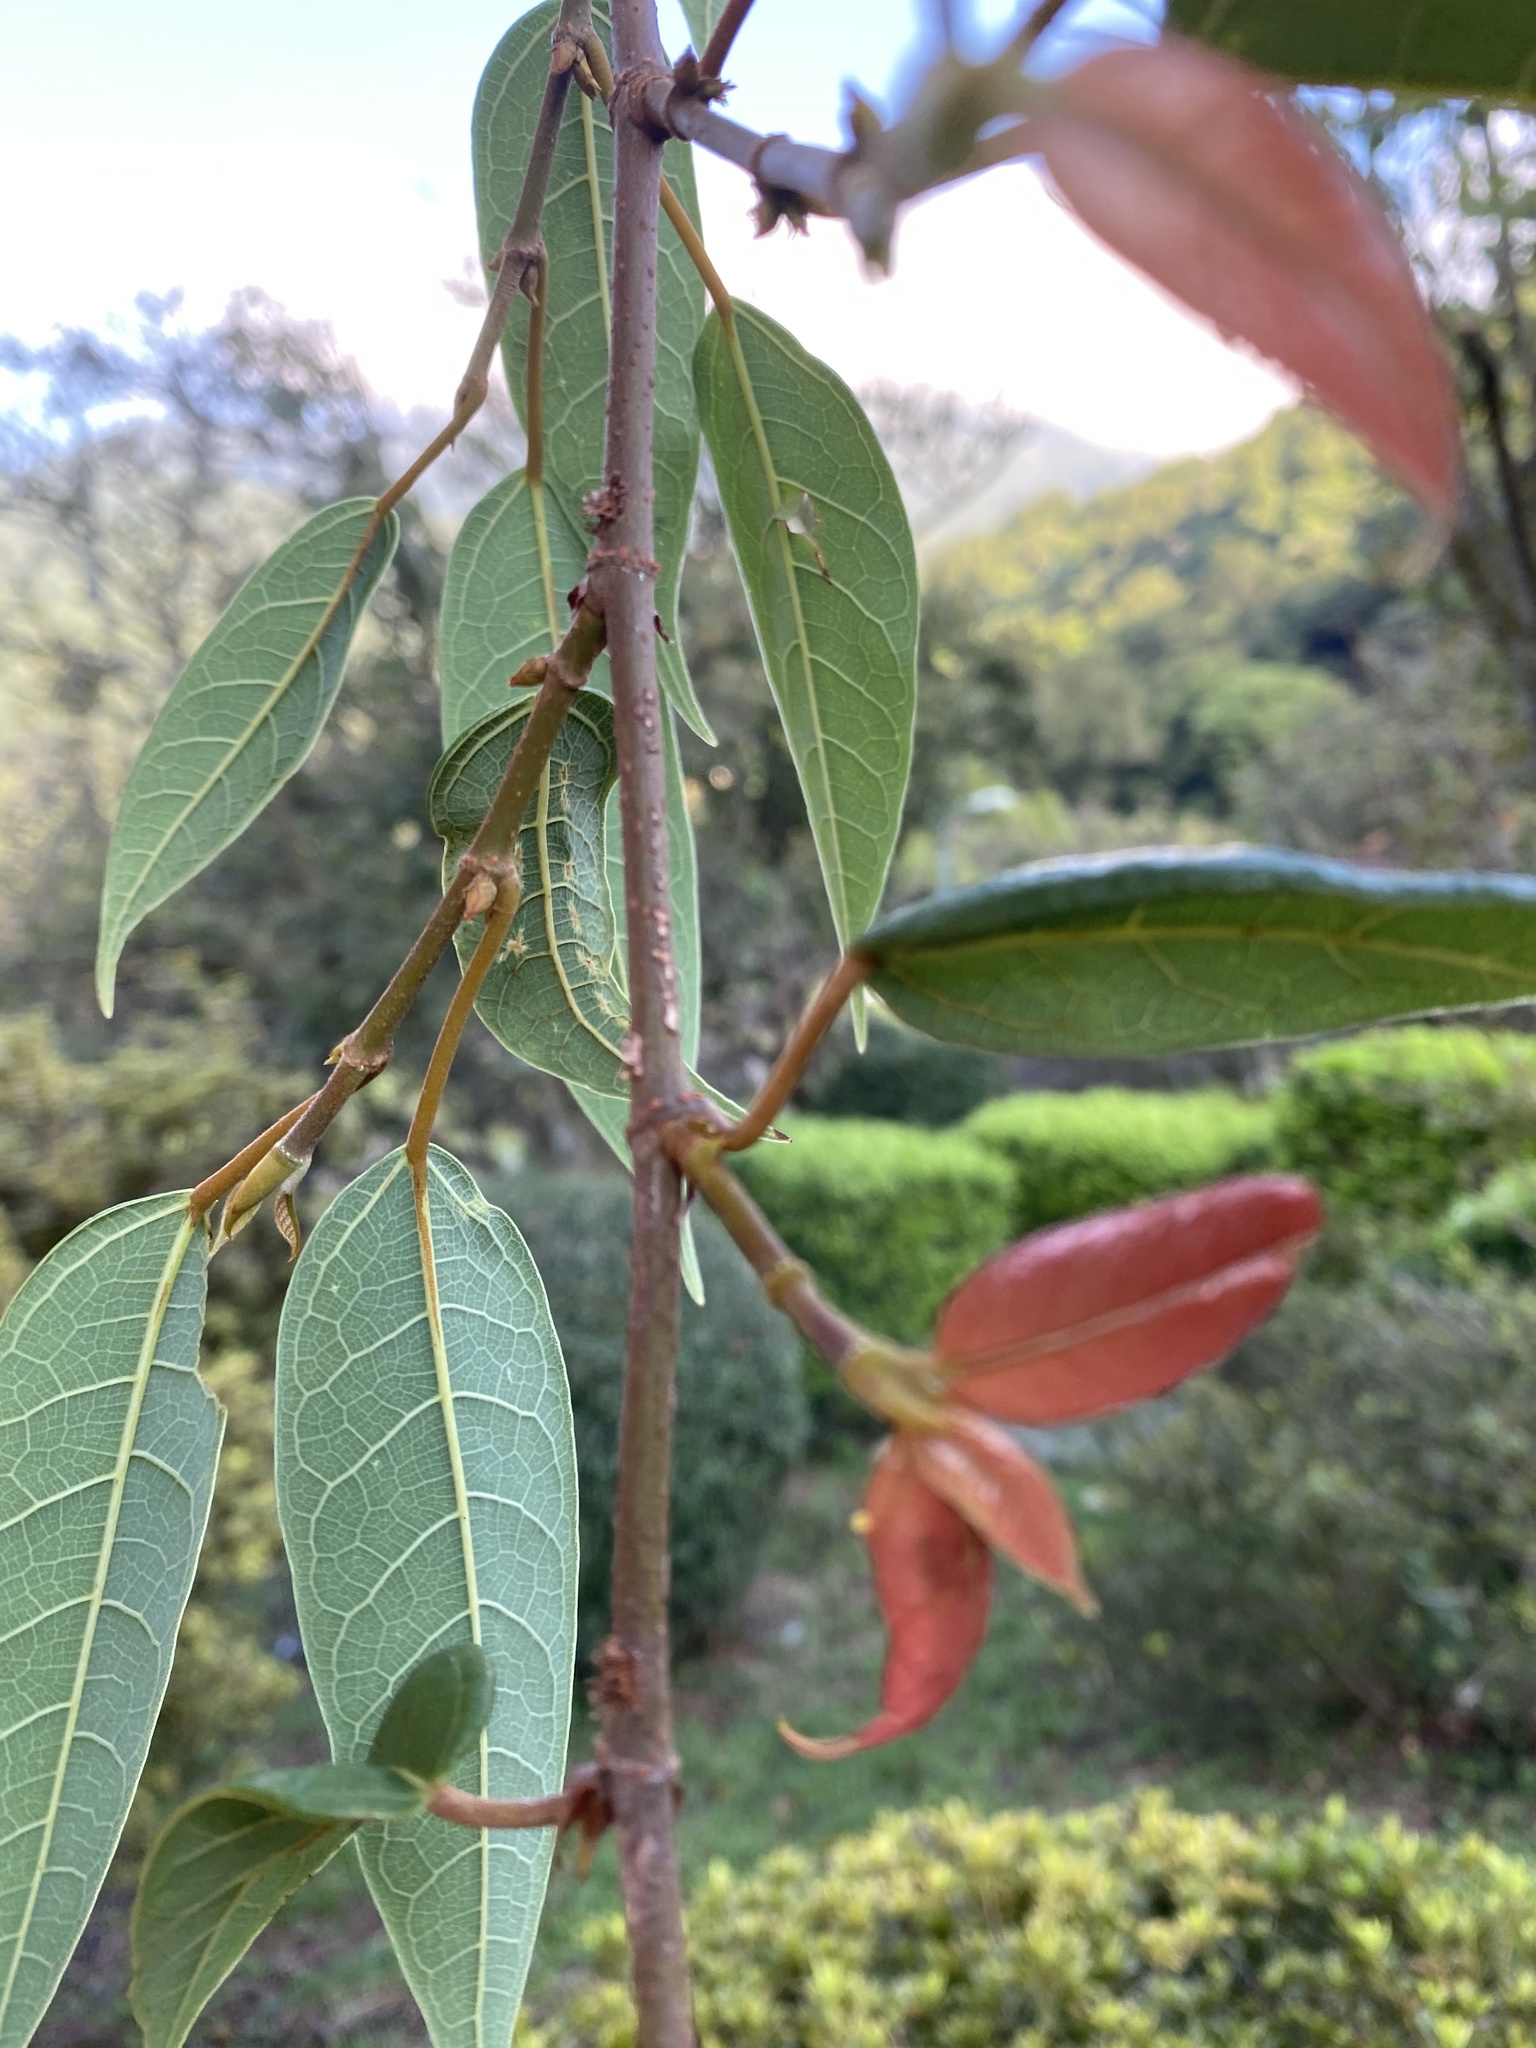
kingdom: Plantae
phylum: Tracheophyta
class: Magnoliopsida
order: Rosales
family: Moraceae
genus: Ficus
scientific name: Ficus sarmentosa
